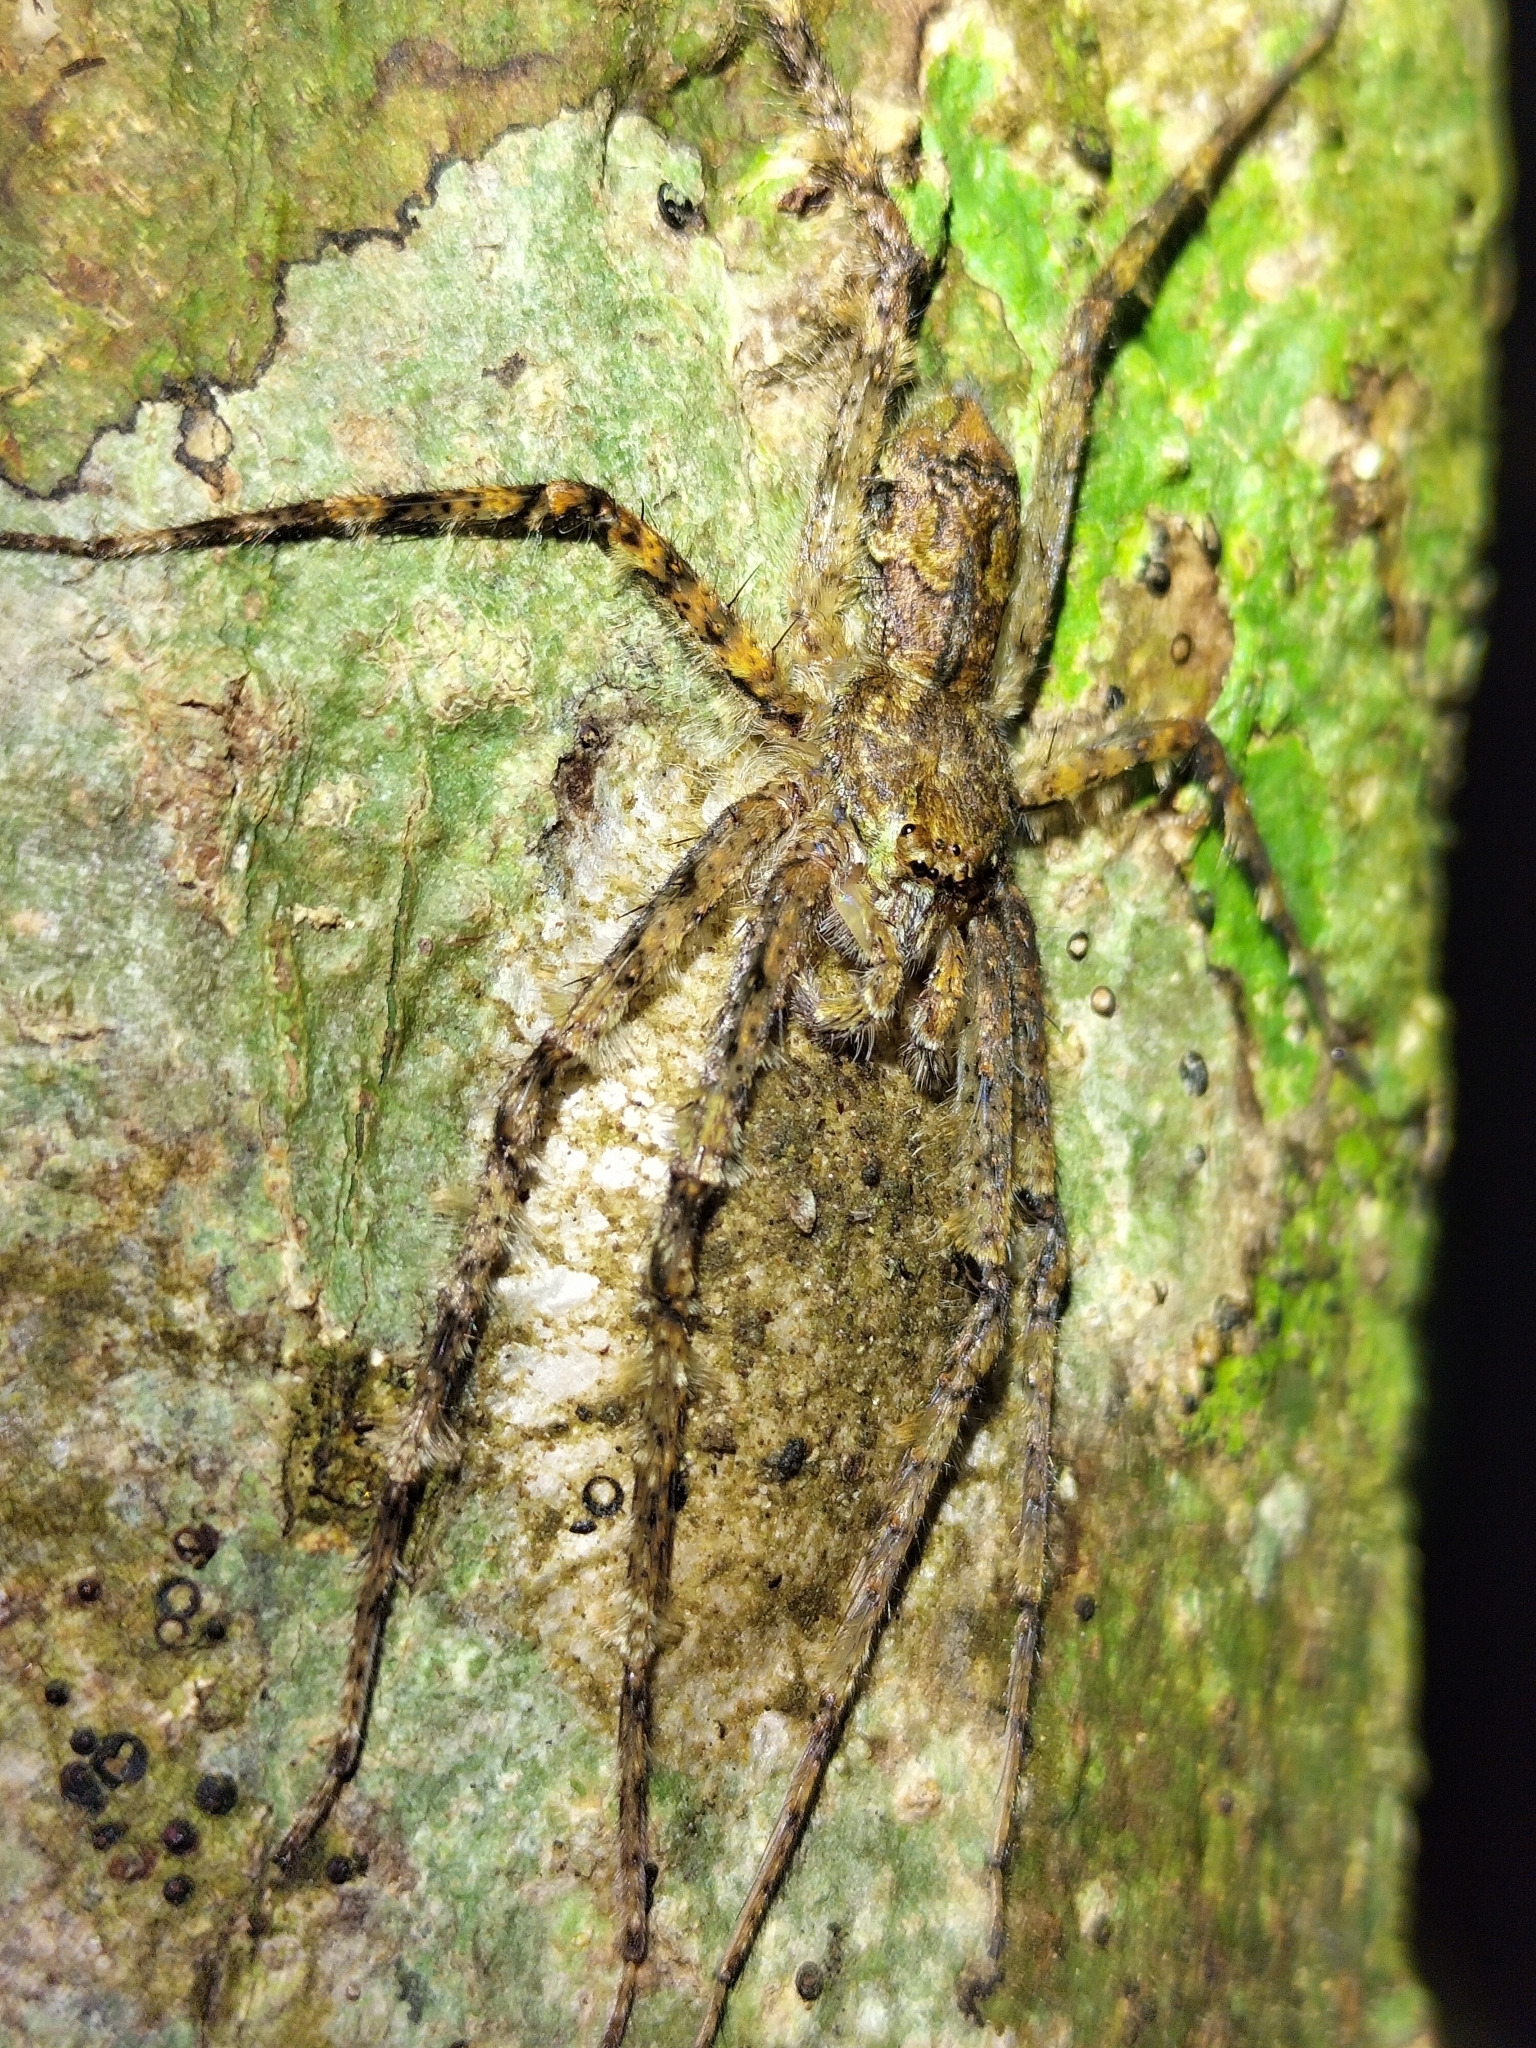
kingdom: Animalia
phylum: Arthropoda
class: Arachnida
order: Araneae
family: Sparassidae
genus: Pandercetes
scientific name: Pandercetes gracilis
